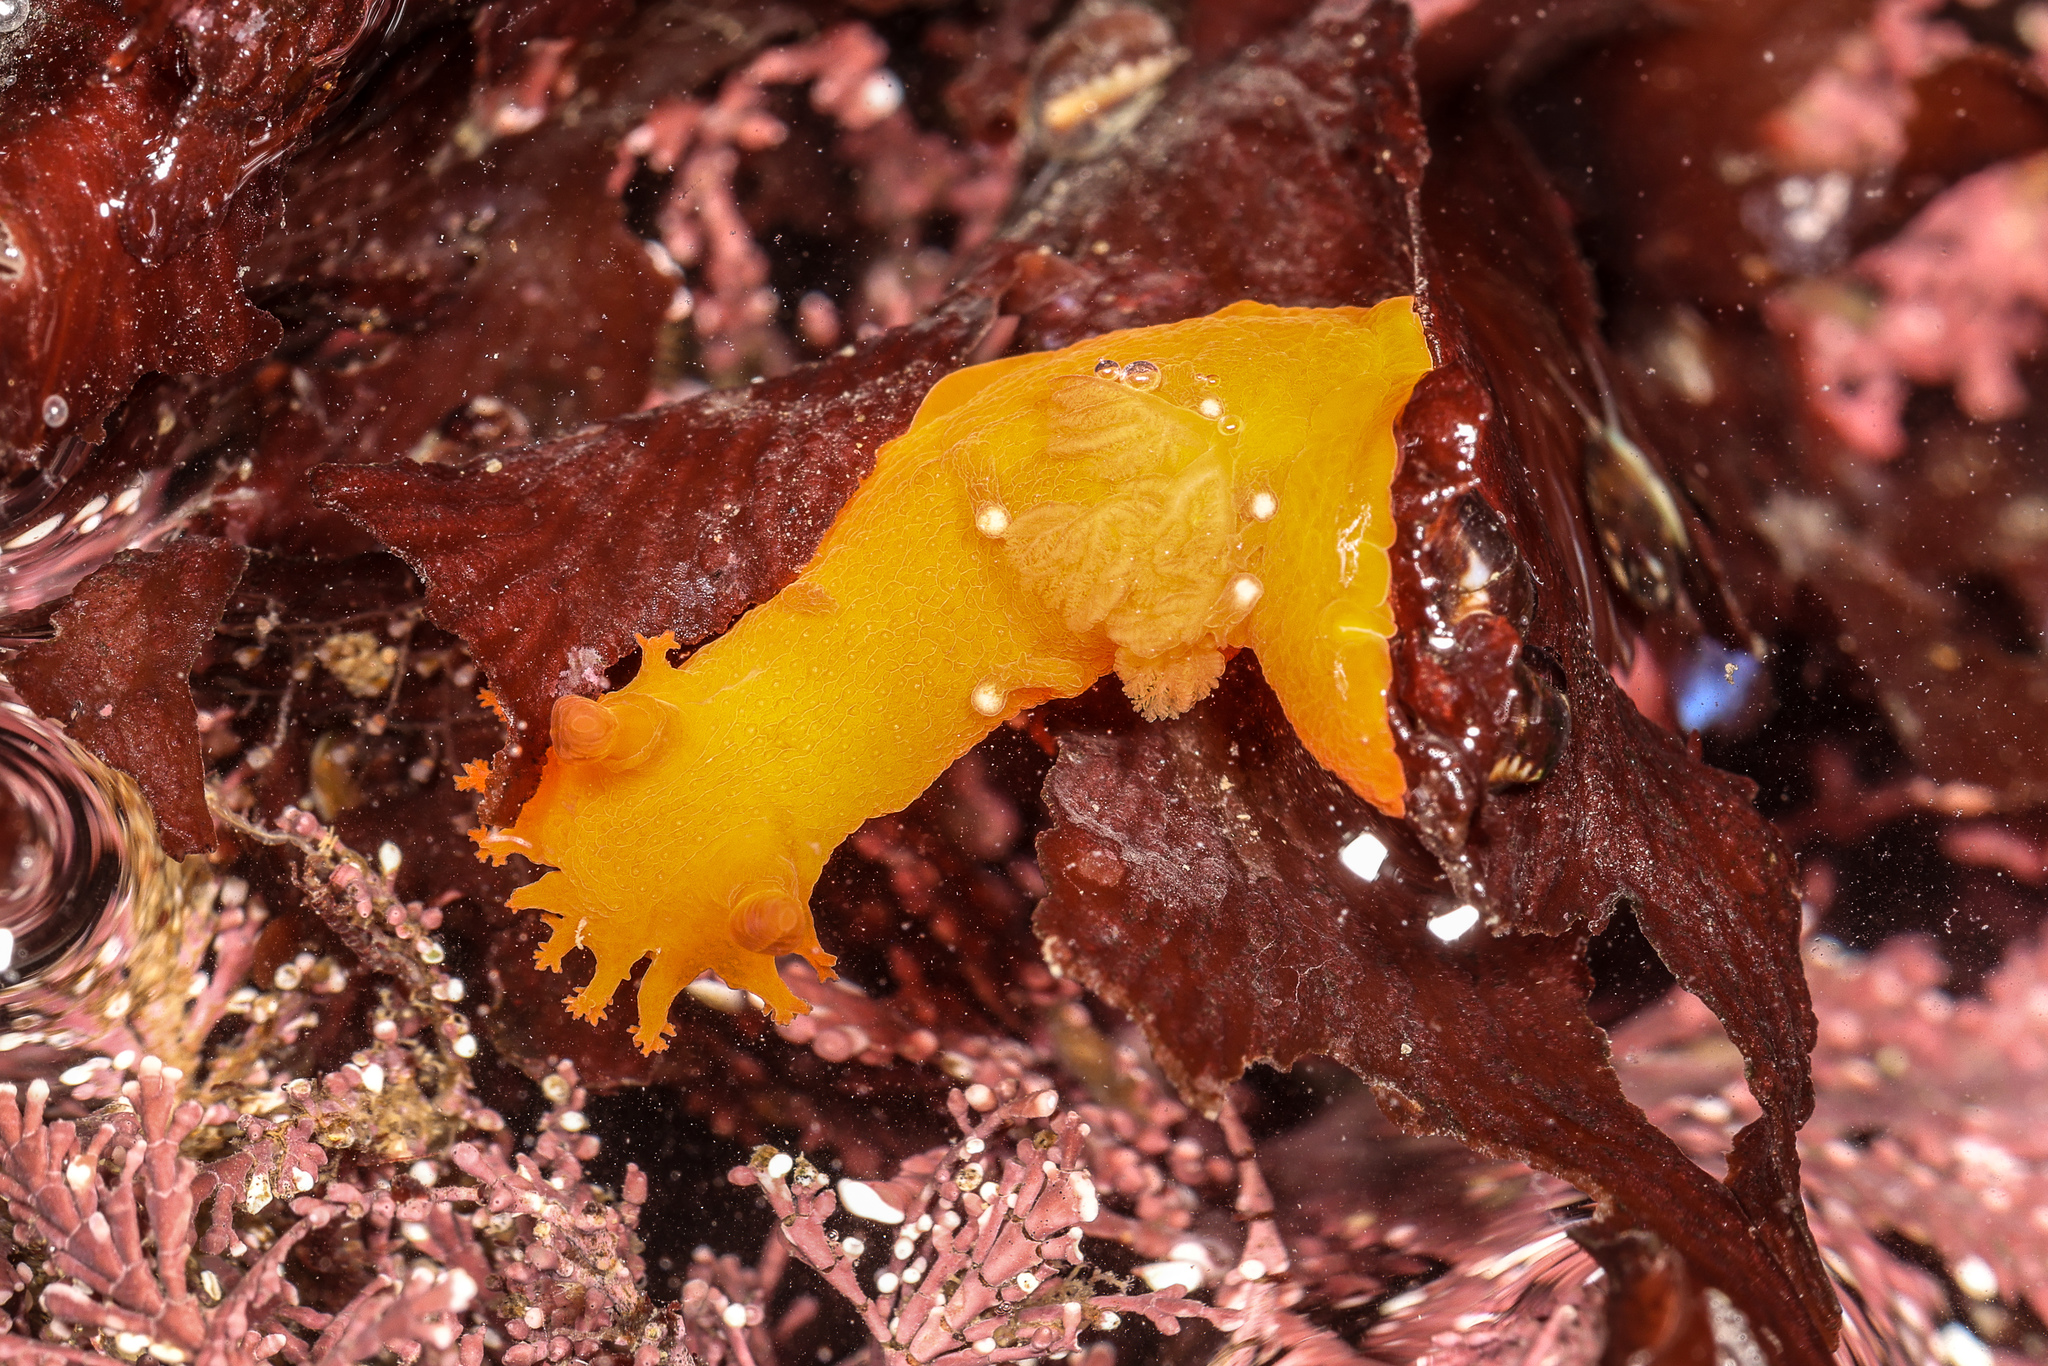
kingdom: Animalia
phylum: Mollusca
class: Gastropoda
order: Nudibranchia
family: Polyceridae
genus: Triopha
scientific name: Triopha maculata
